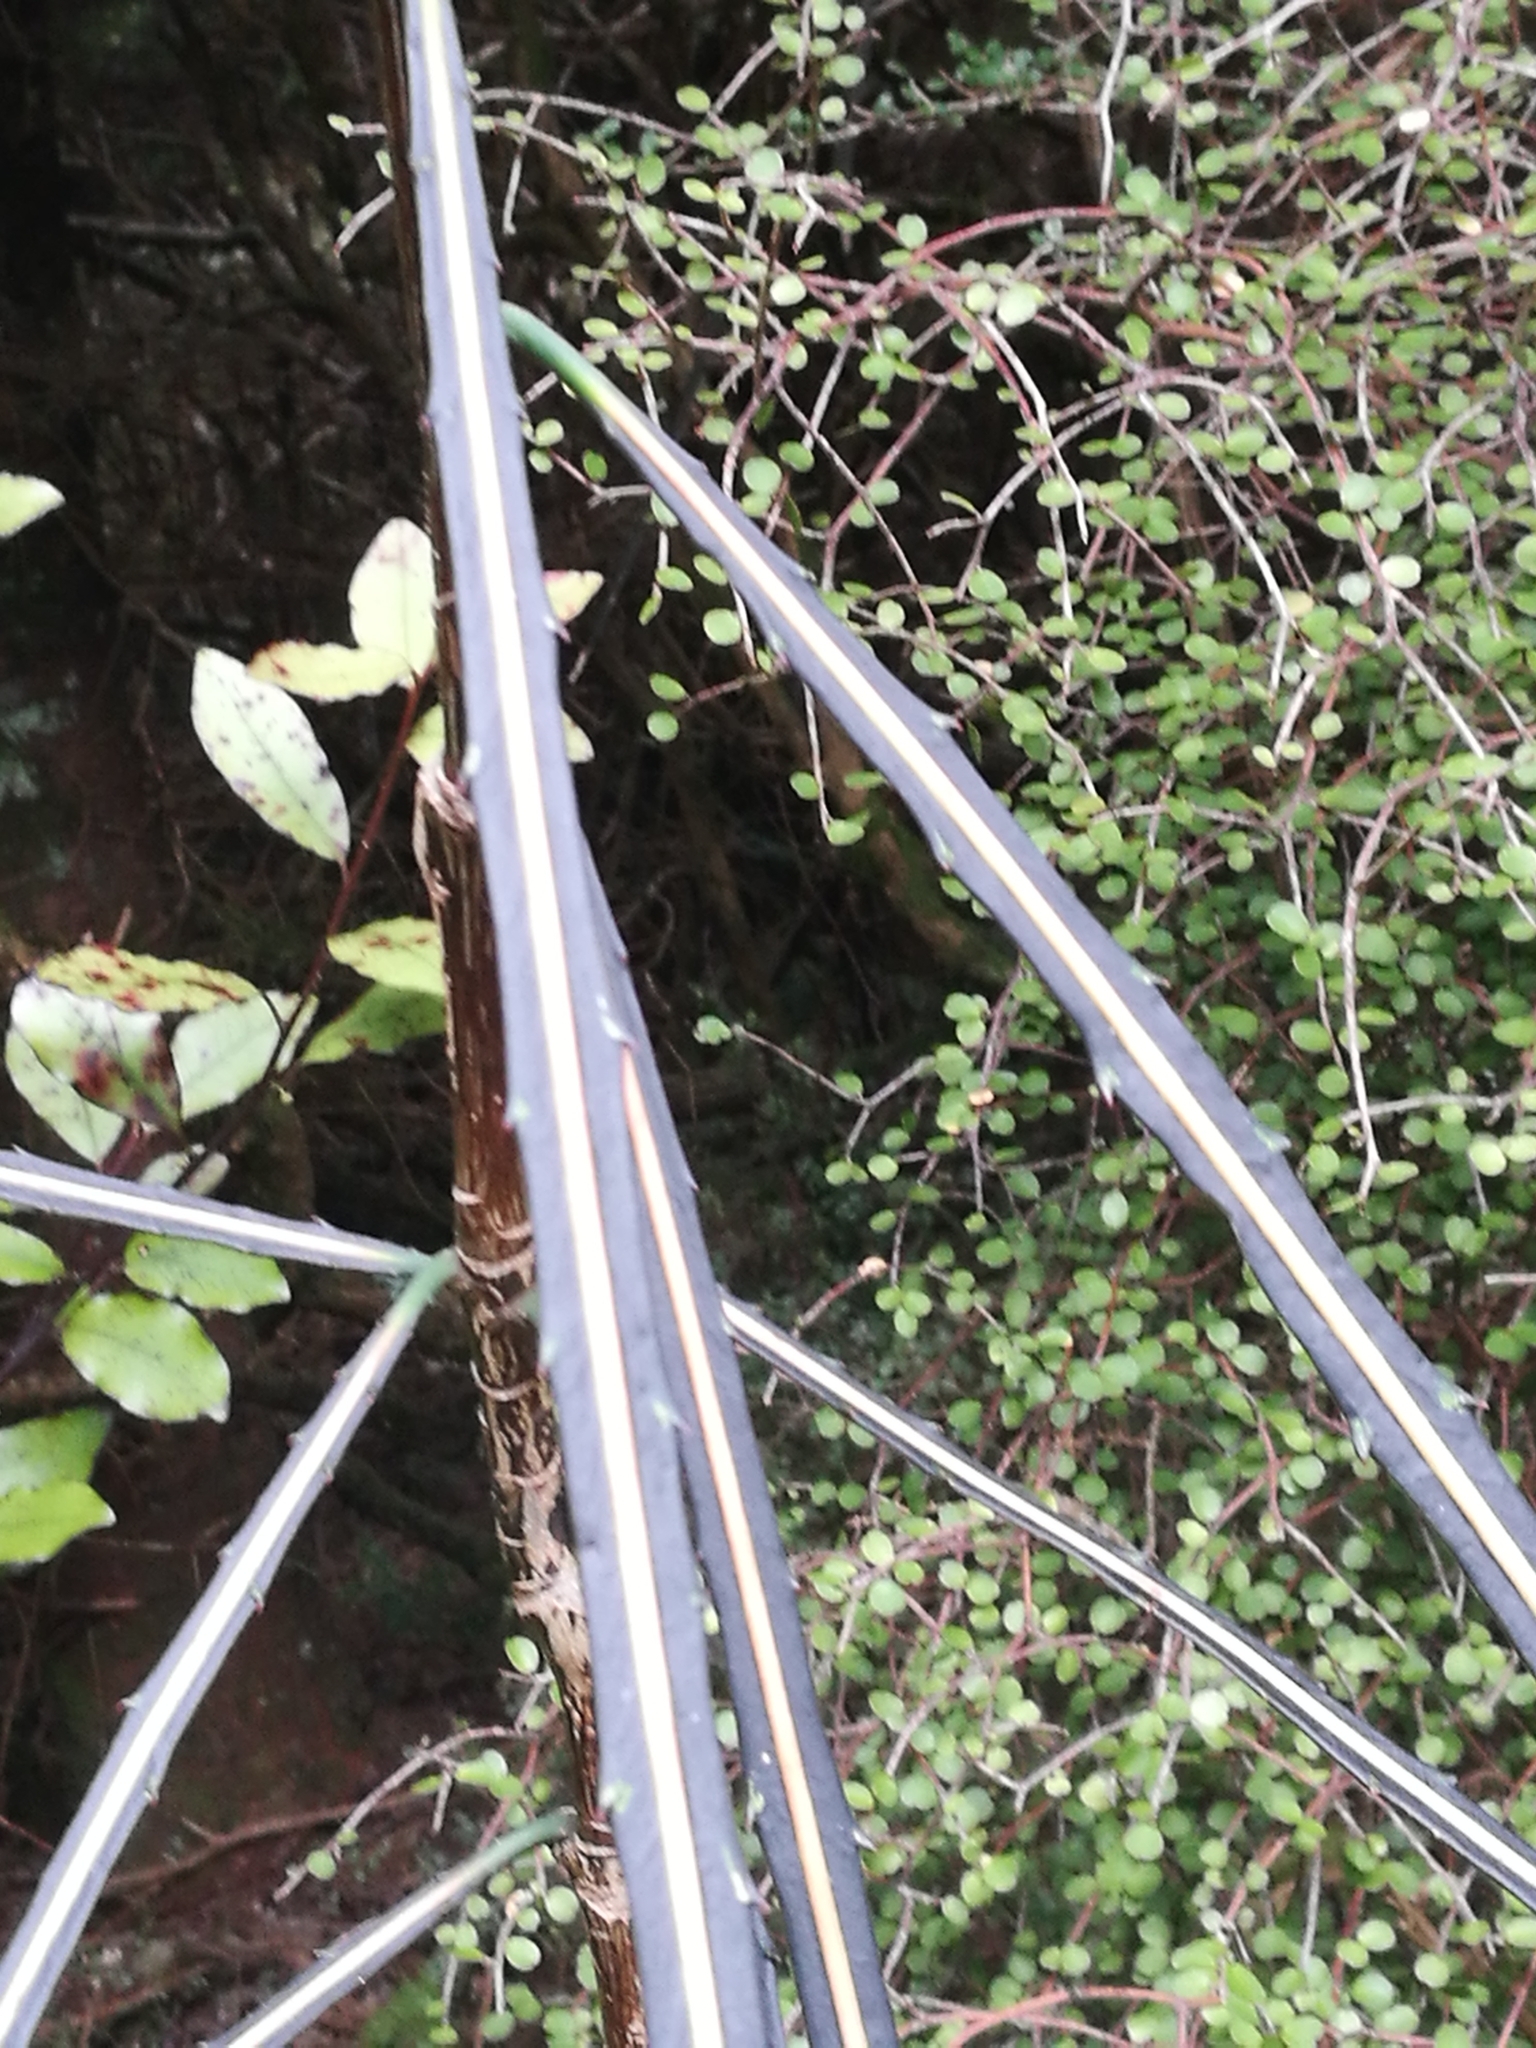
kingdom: Plantae
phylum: Tracheophyta
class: Magnoliopsida
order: Apiales
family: Araliaceae
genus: Pseudopanax
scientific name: Pseudopanax crassifolius
